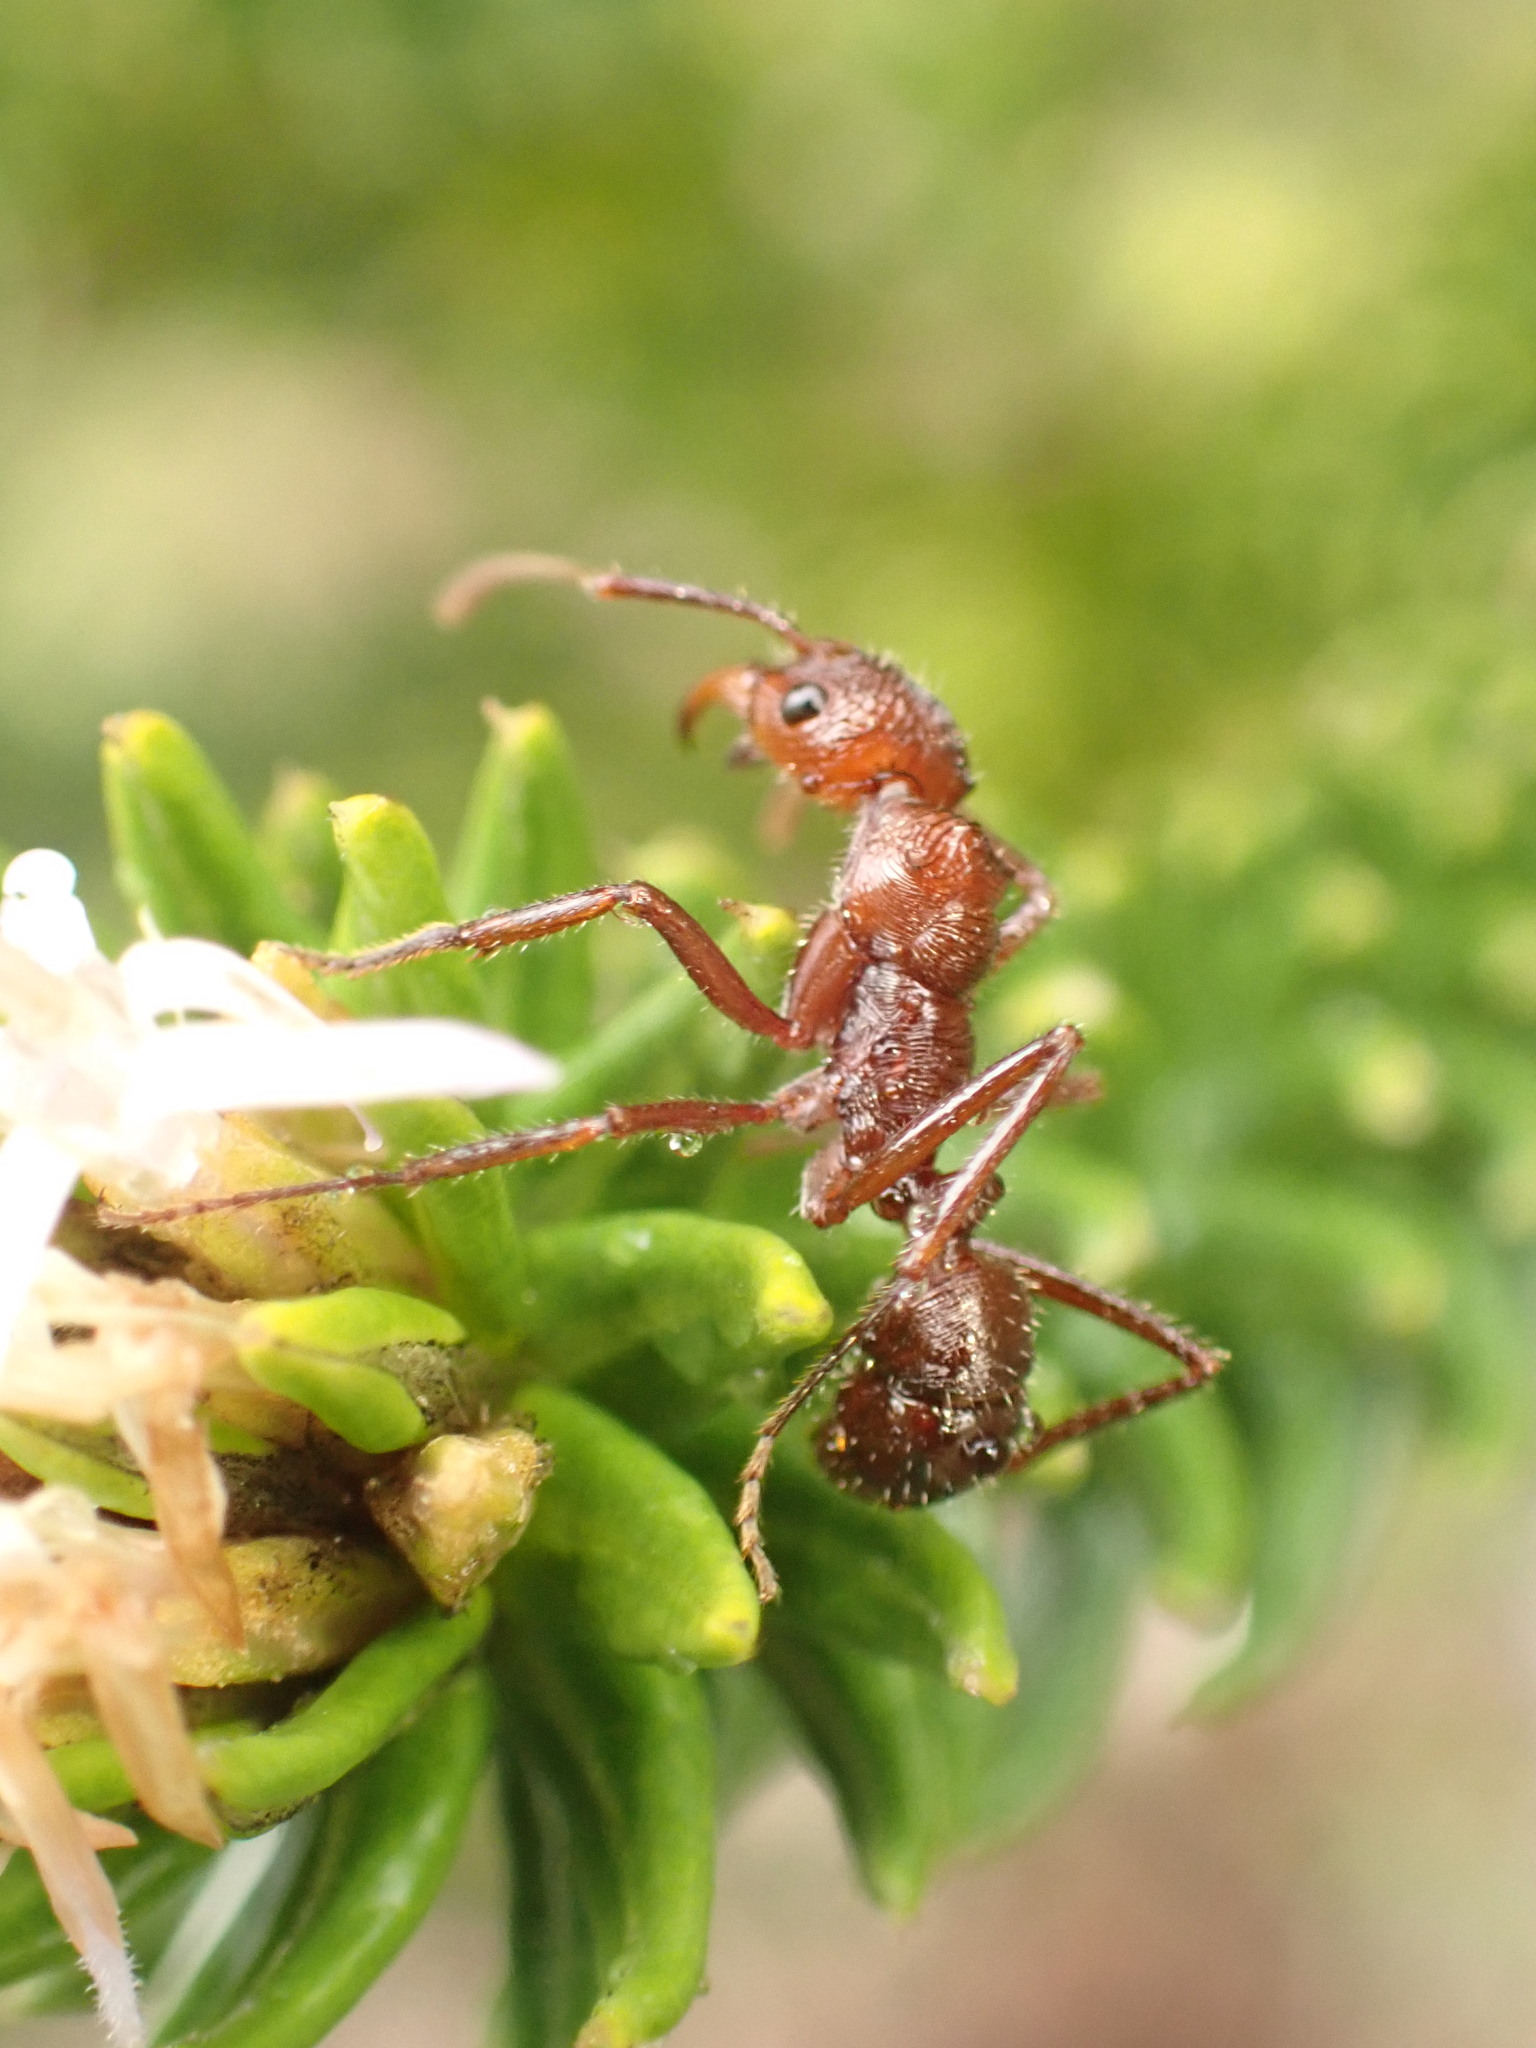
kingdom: Animalia
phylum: Arthropoda
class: Insecta
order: Hymenoptera
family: Formicidae
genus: Ectatomma
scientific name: Ectatomma tuberculatum
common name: Ant
